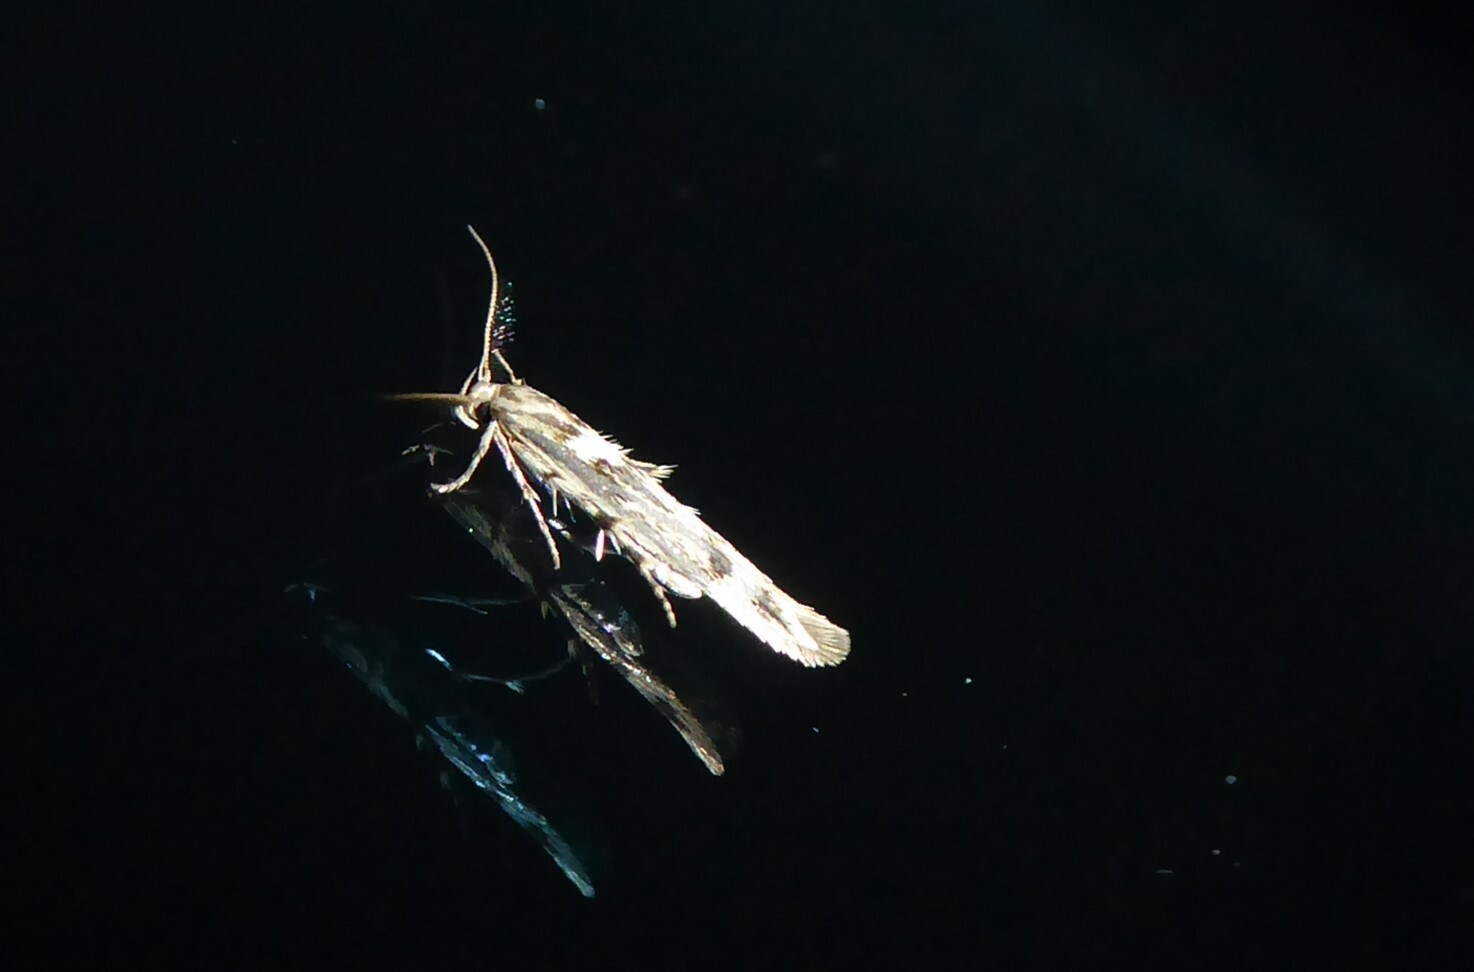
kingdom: Animalia
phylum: Arthropoda
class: Insecta
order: Lepidoptera
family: Stathmopodidae
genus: Stathmopoda
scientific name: Stathmopoda plumbiflua
